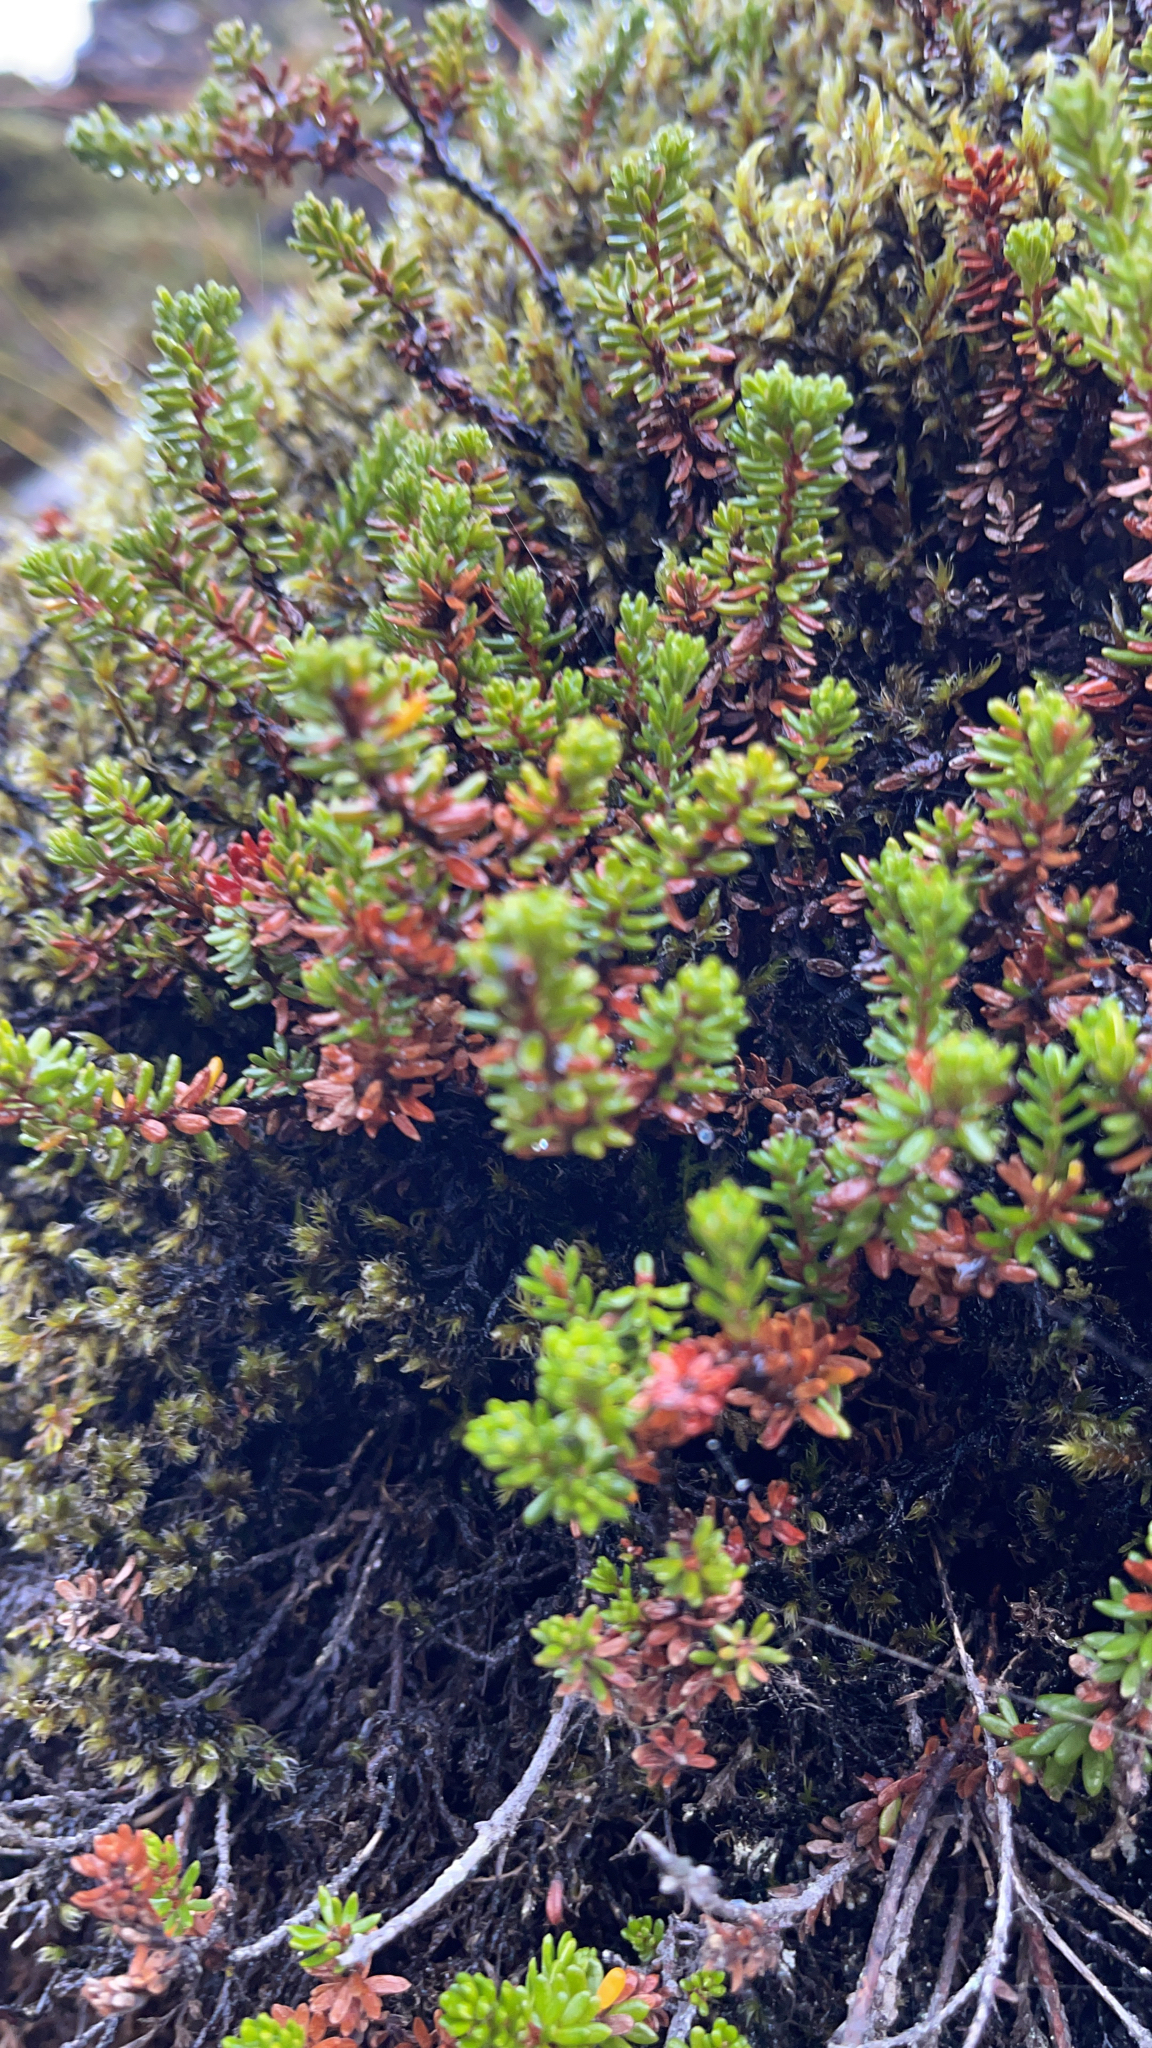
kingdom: Plantae
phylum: Tracheophyta
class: Magnoliopsida
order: Ericales
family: Ericaceae
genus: Empetrum
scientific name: Empetrum nigrum
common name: Black crowberry
